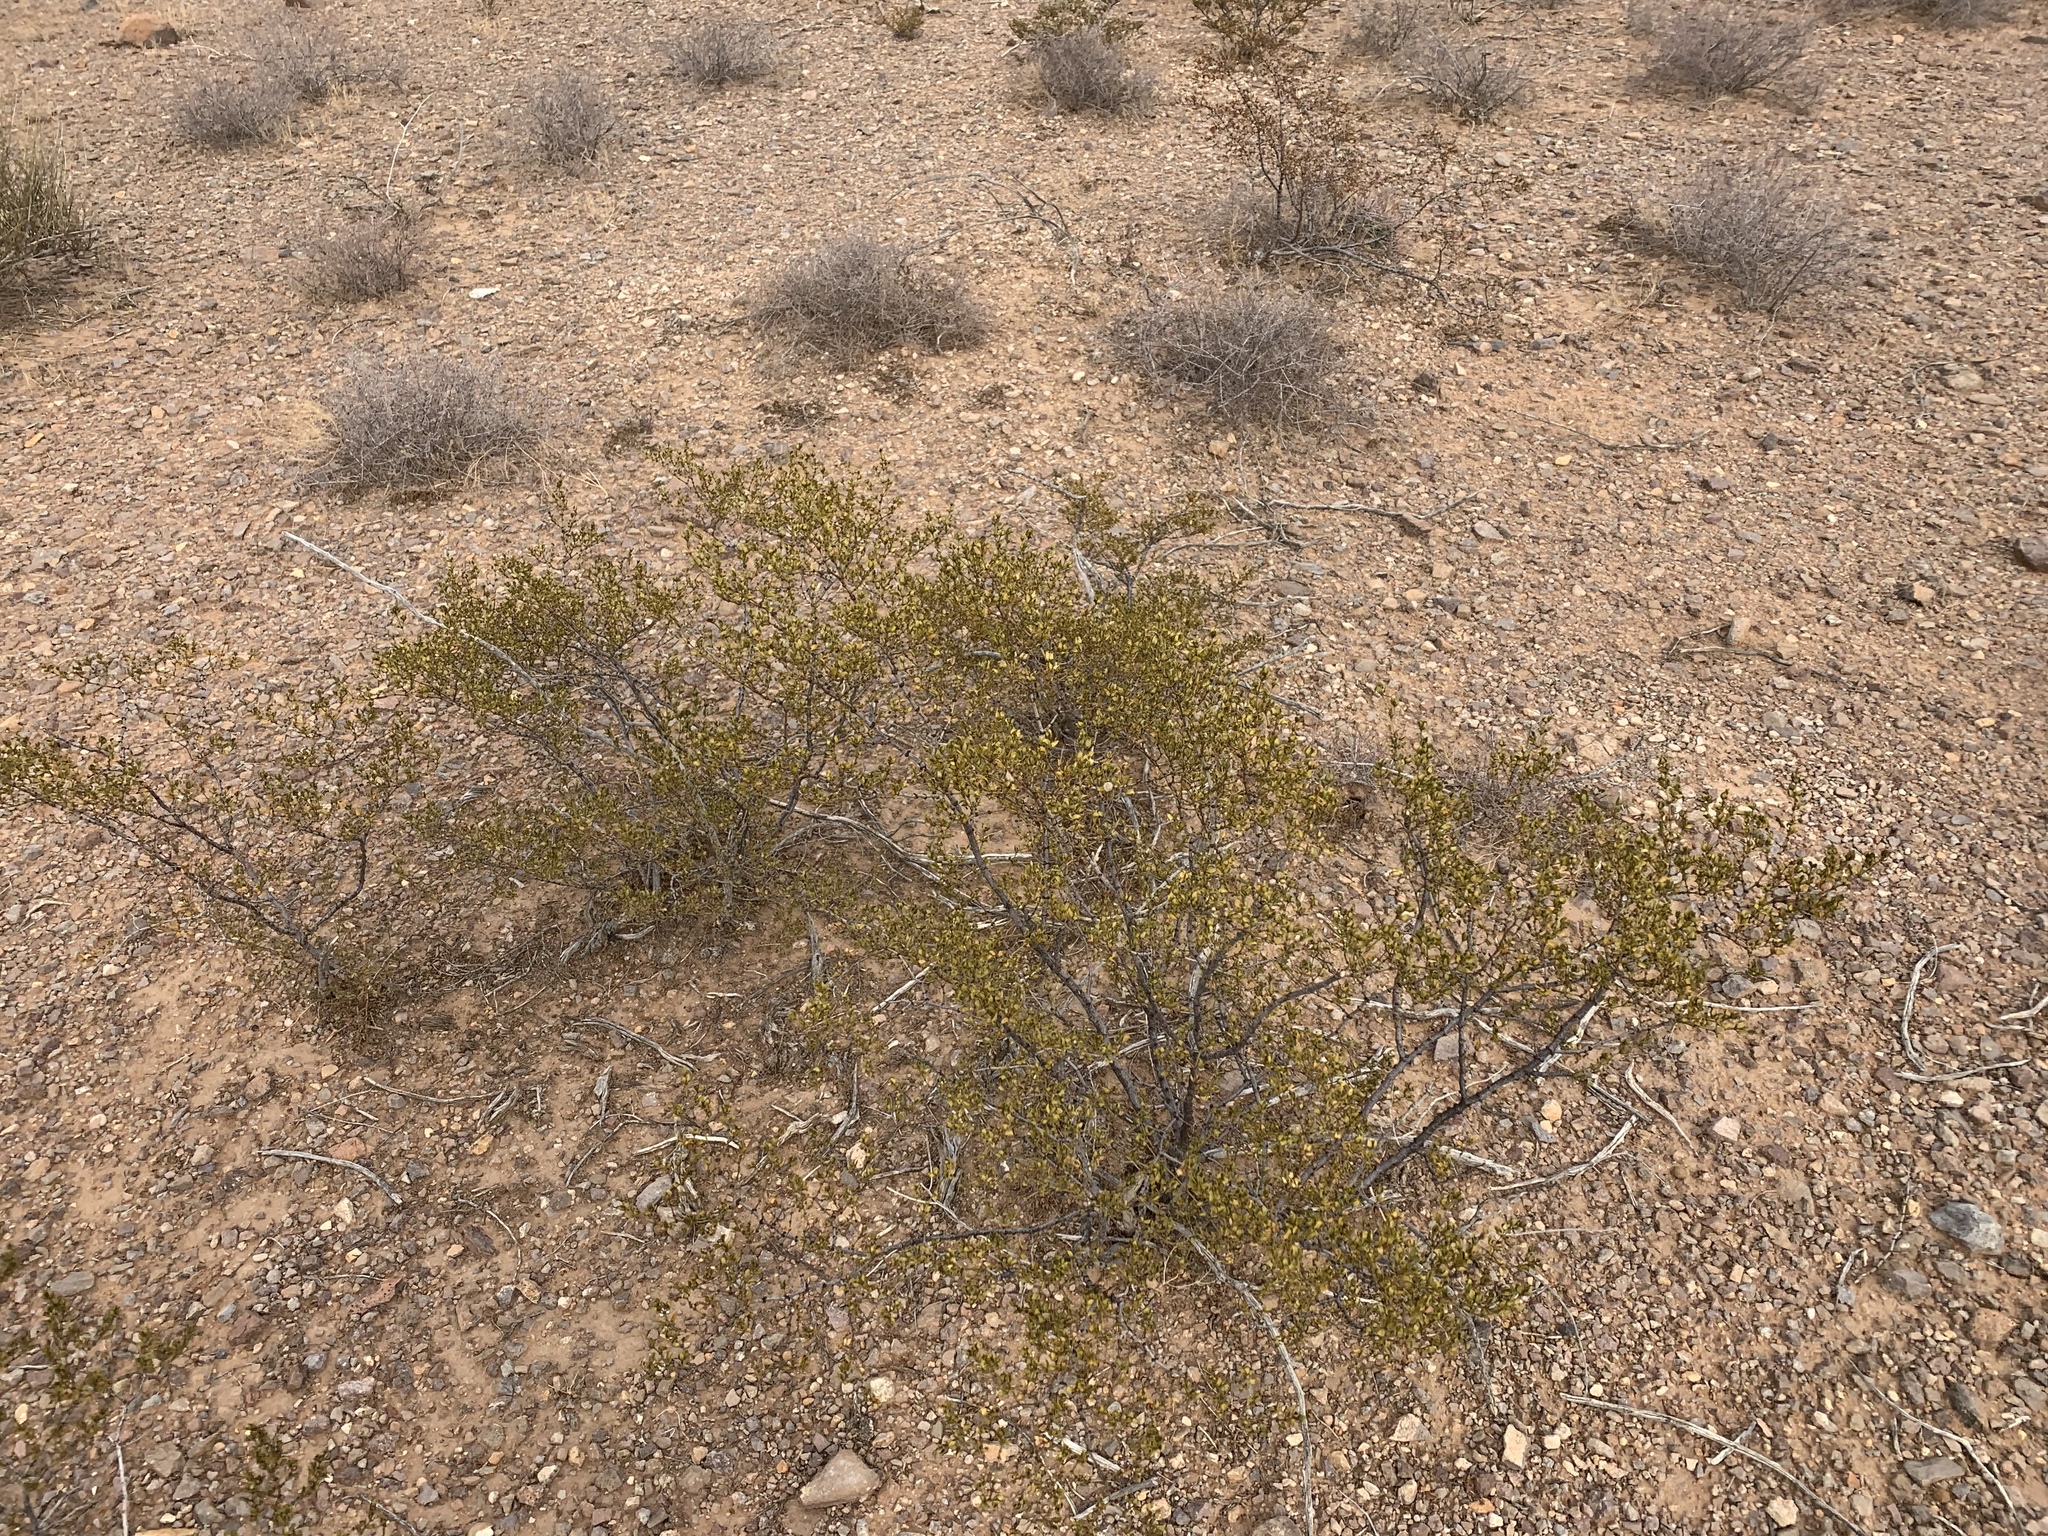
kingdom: Plantae
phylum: Tracheophyta
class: Magnoliopsida
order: Zygophyllales
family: Zygophyllaceae
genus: Larrea
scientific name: Larrea tridentata
